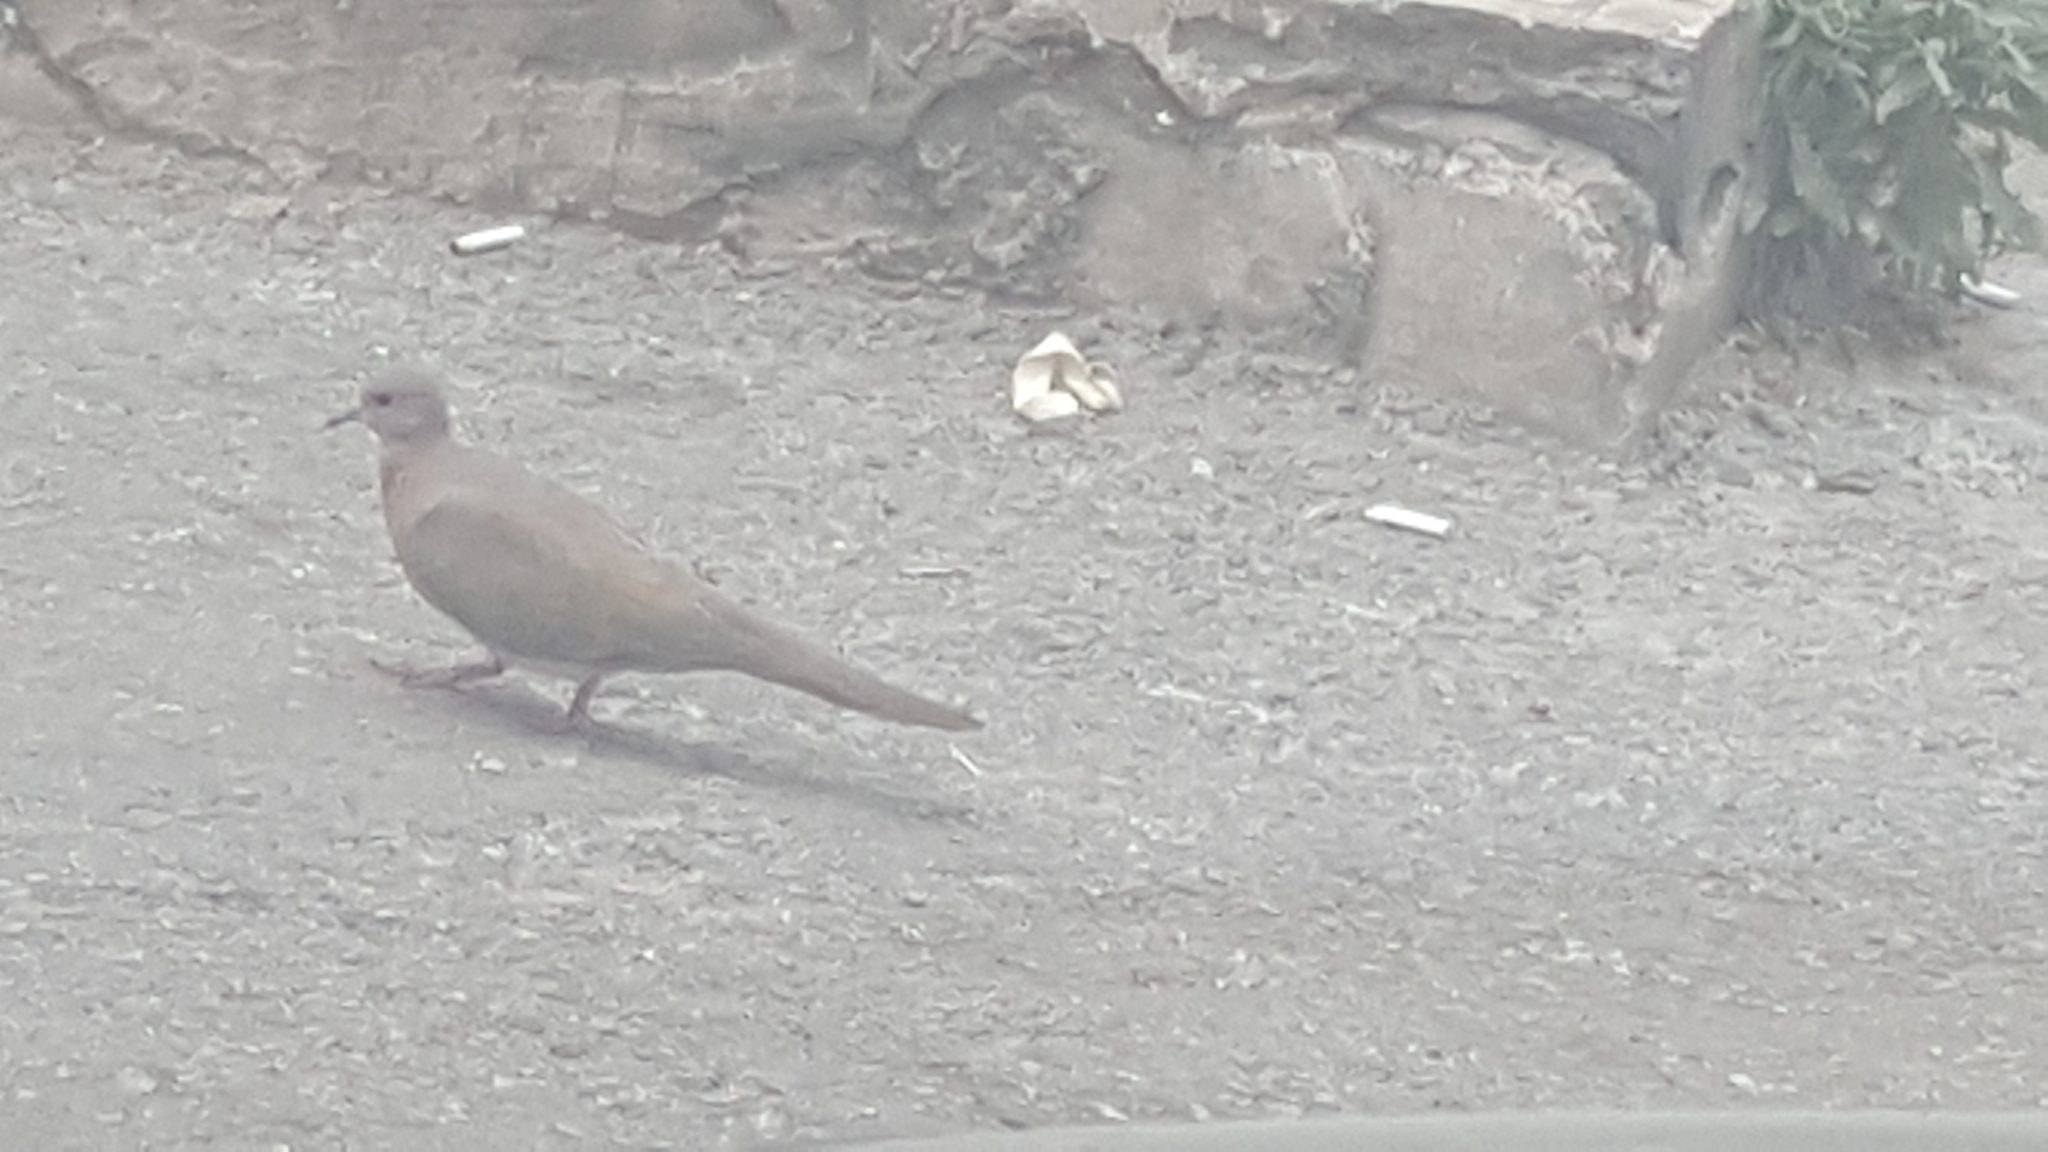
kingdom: Animalia
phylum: Chordata
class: Aves
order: Columbiformes
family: Columbidae
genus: Spilopelia
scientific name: Spilopelia senegalensis
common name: Laughing dove
